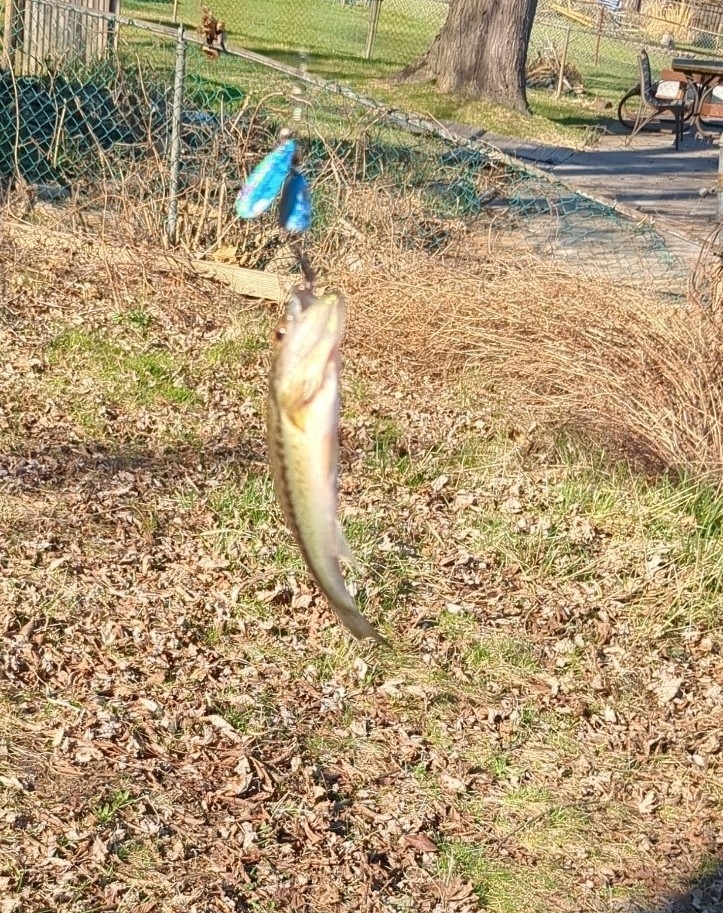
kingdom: Animalia
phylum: Chordata
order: Perciformes
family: Centrarchidae
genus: Micropterus
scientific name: Micropterus
